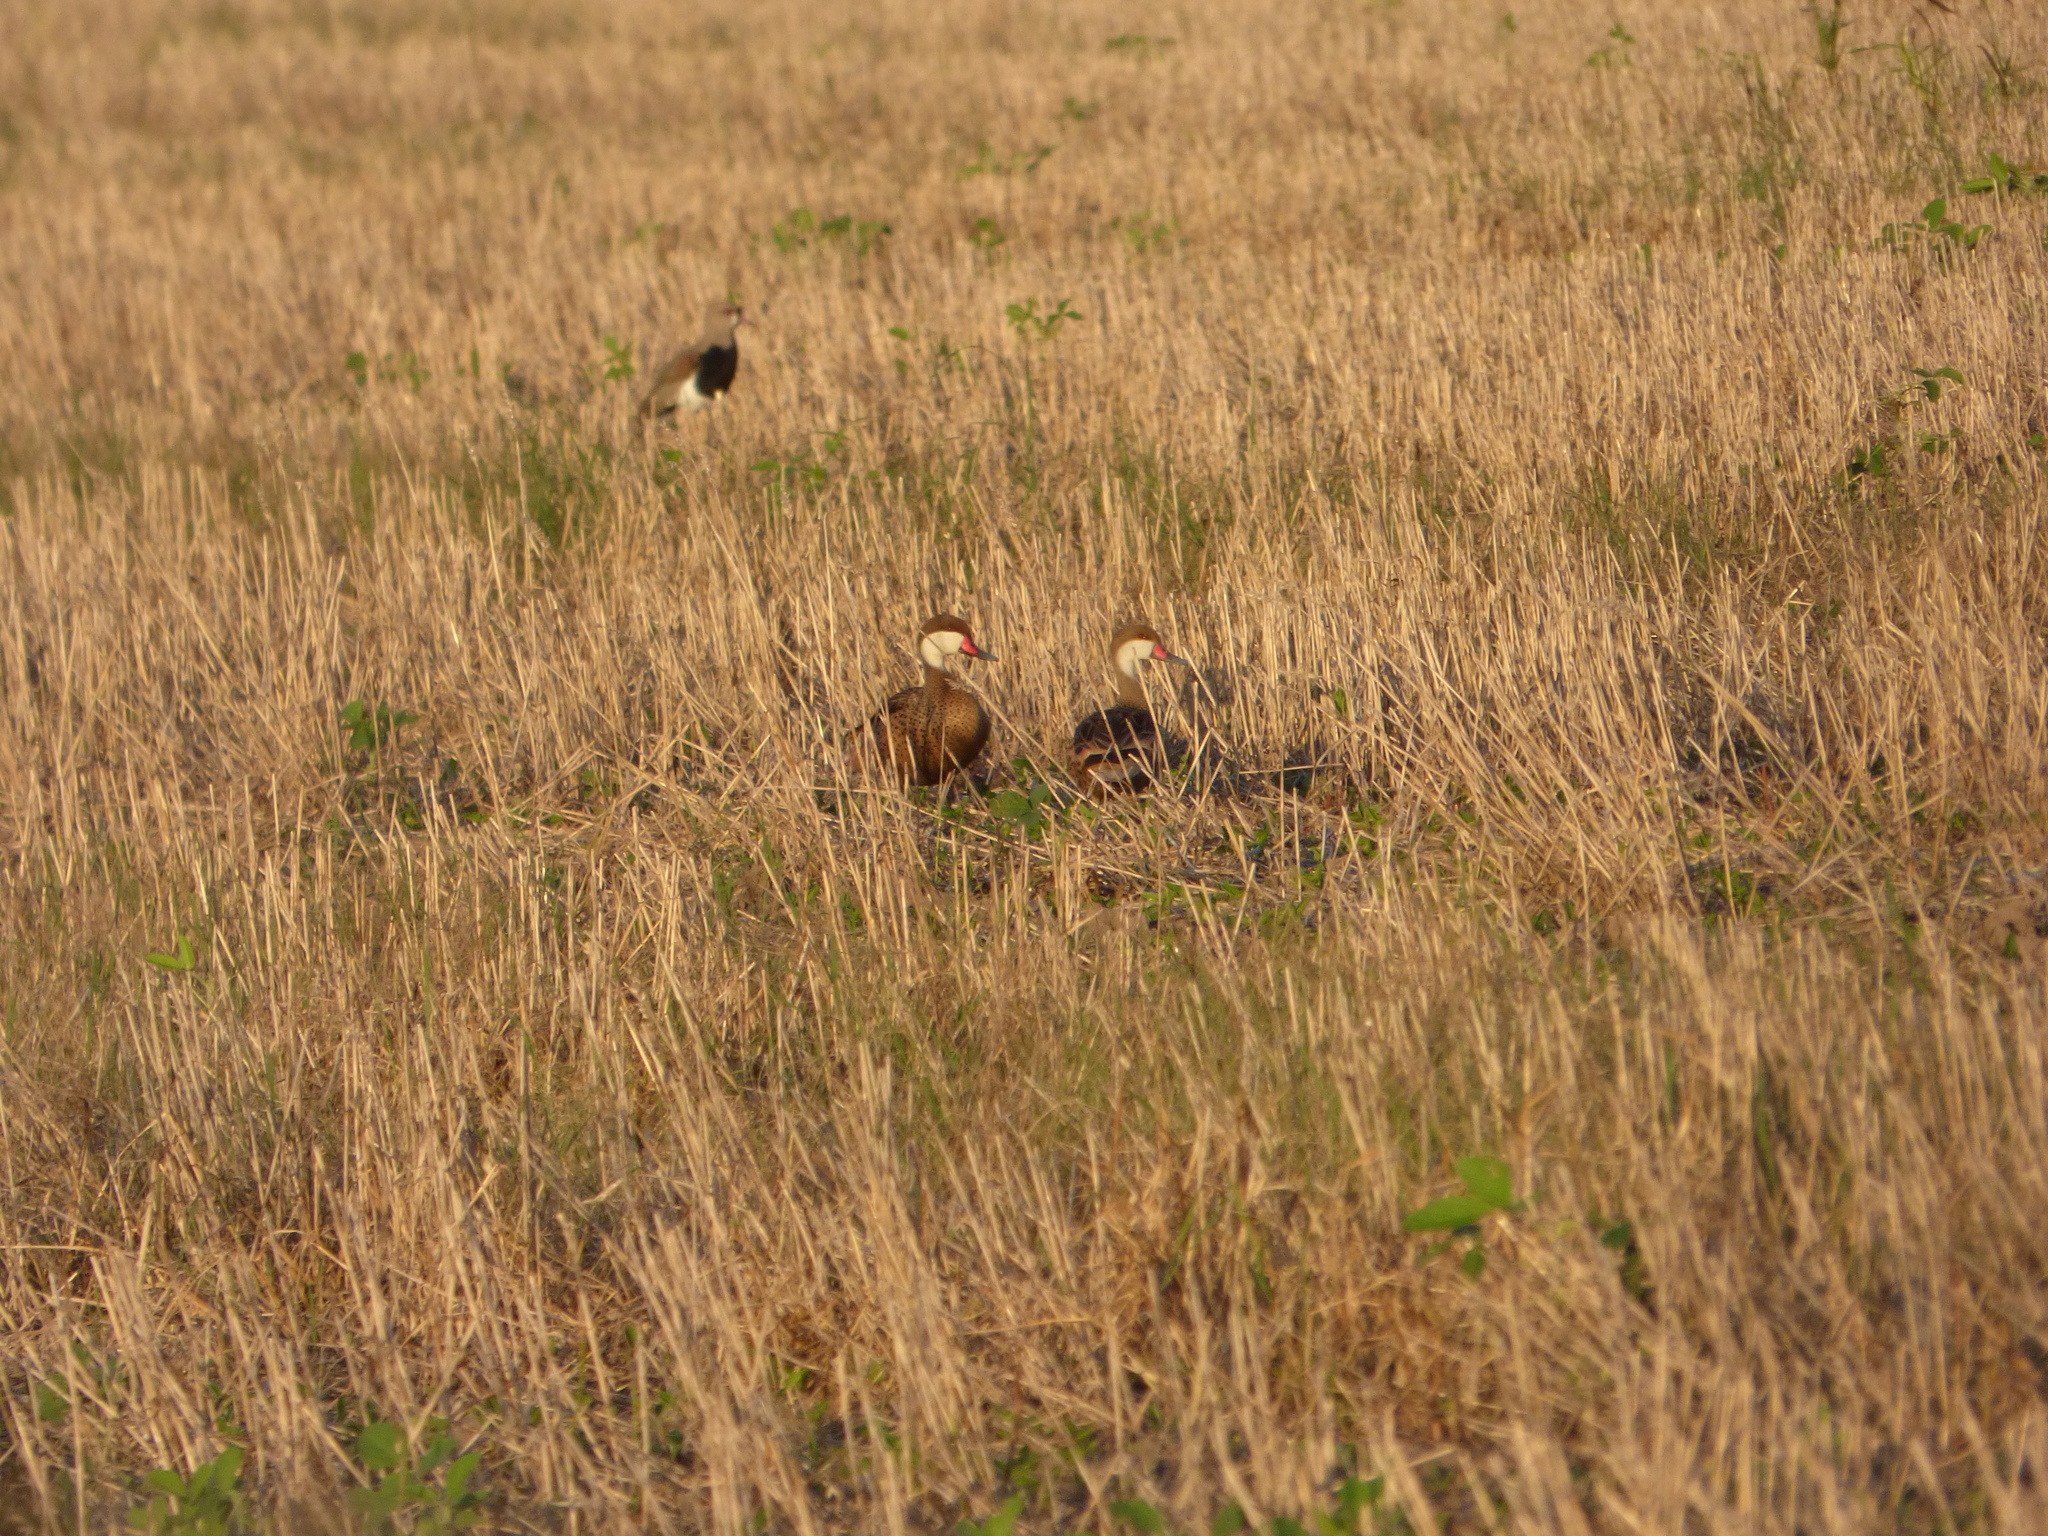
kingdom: Animalia
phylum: Chordata
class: Aves
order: Anseriformes
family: Anatidae
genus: Anas
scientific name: Anas bahamensis
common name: White-cheeked pintail
